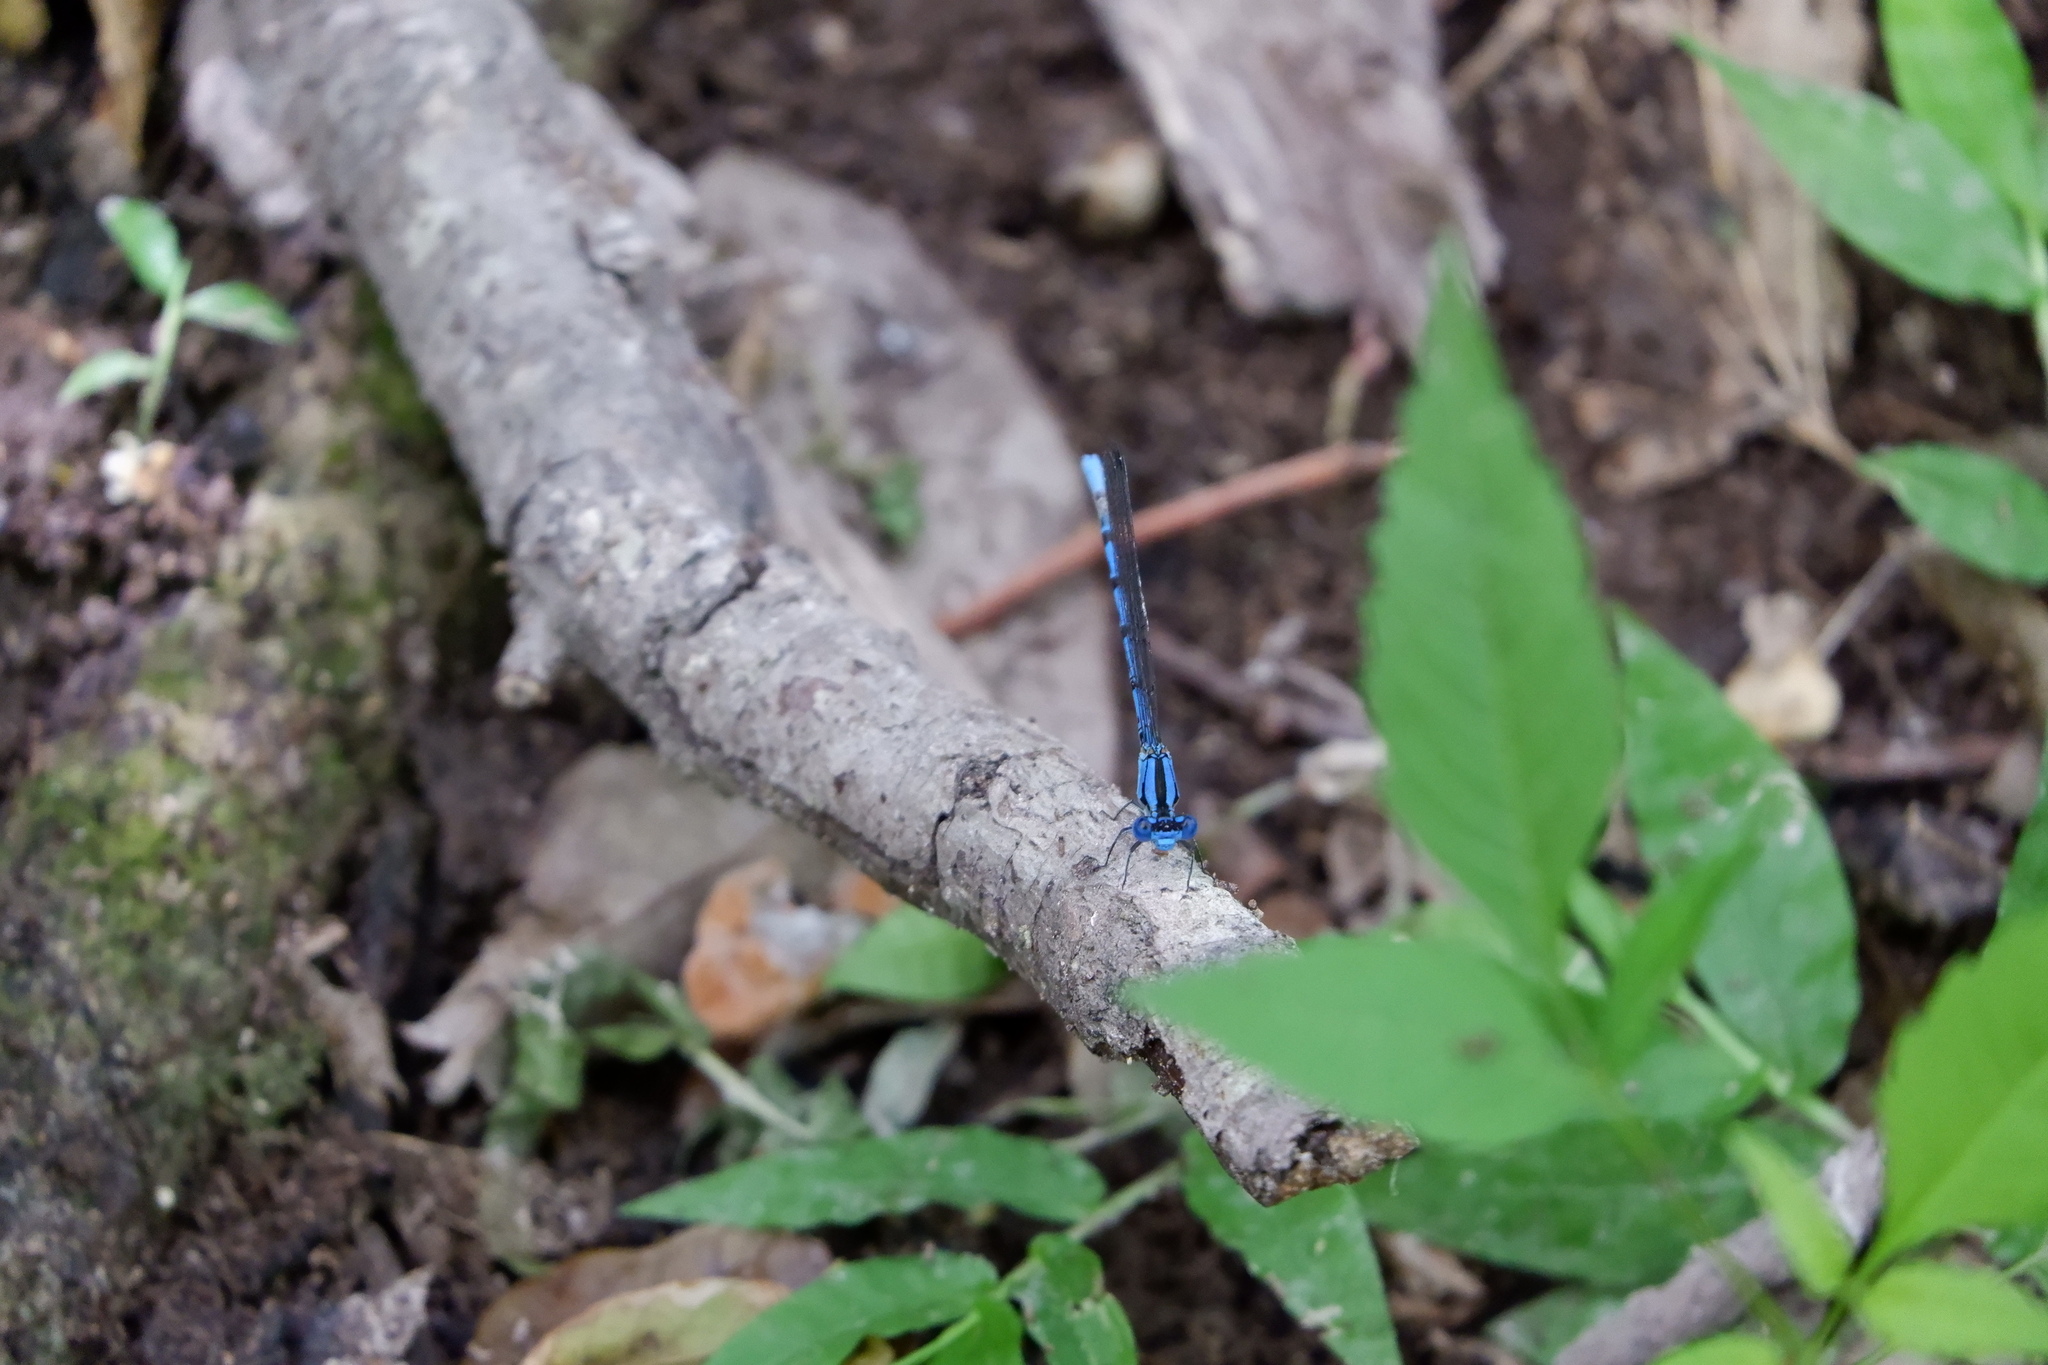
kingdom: Animalia
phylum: Arthropoda
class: Insecta
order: Odonata
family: Coenagrionidae
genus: Argia
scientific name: Argia funebris
